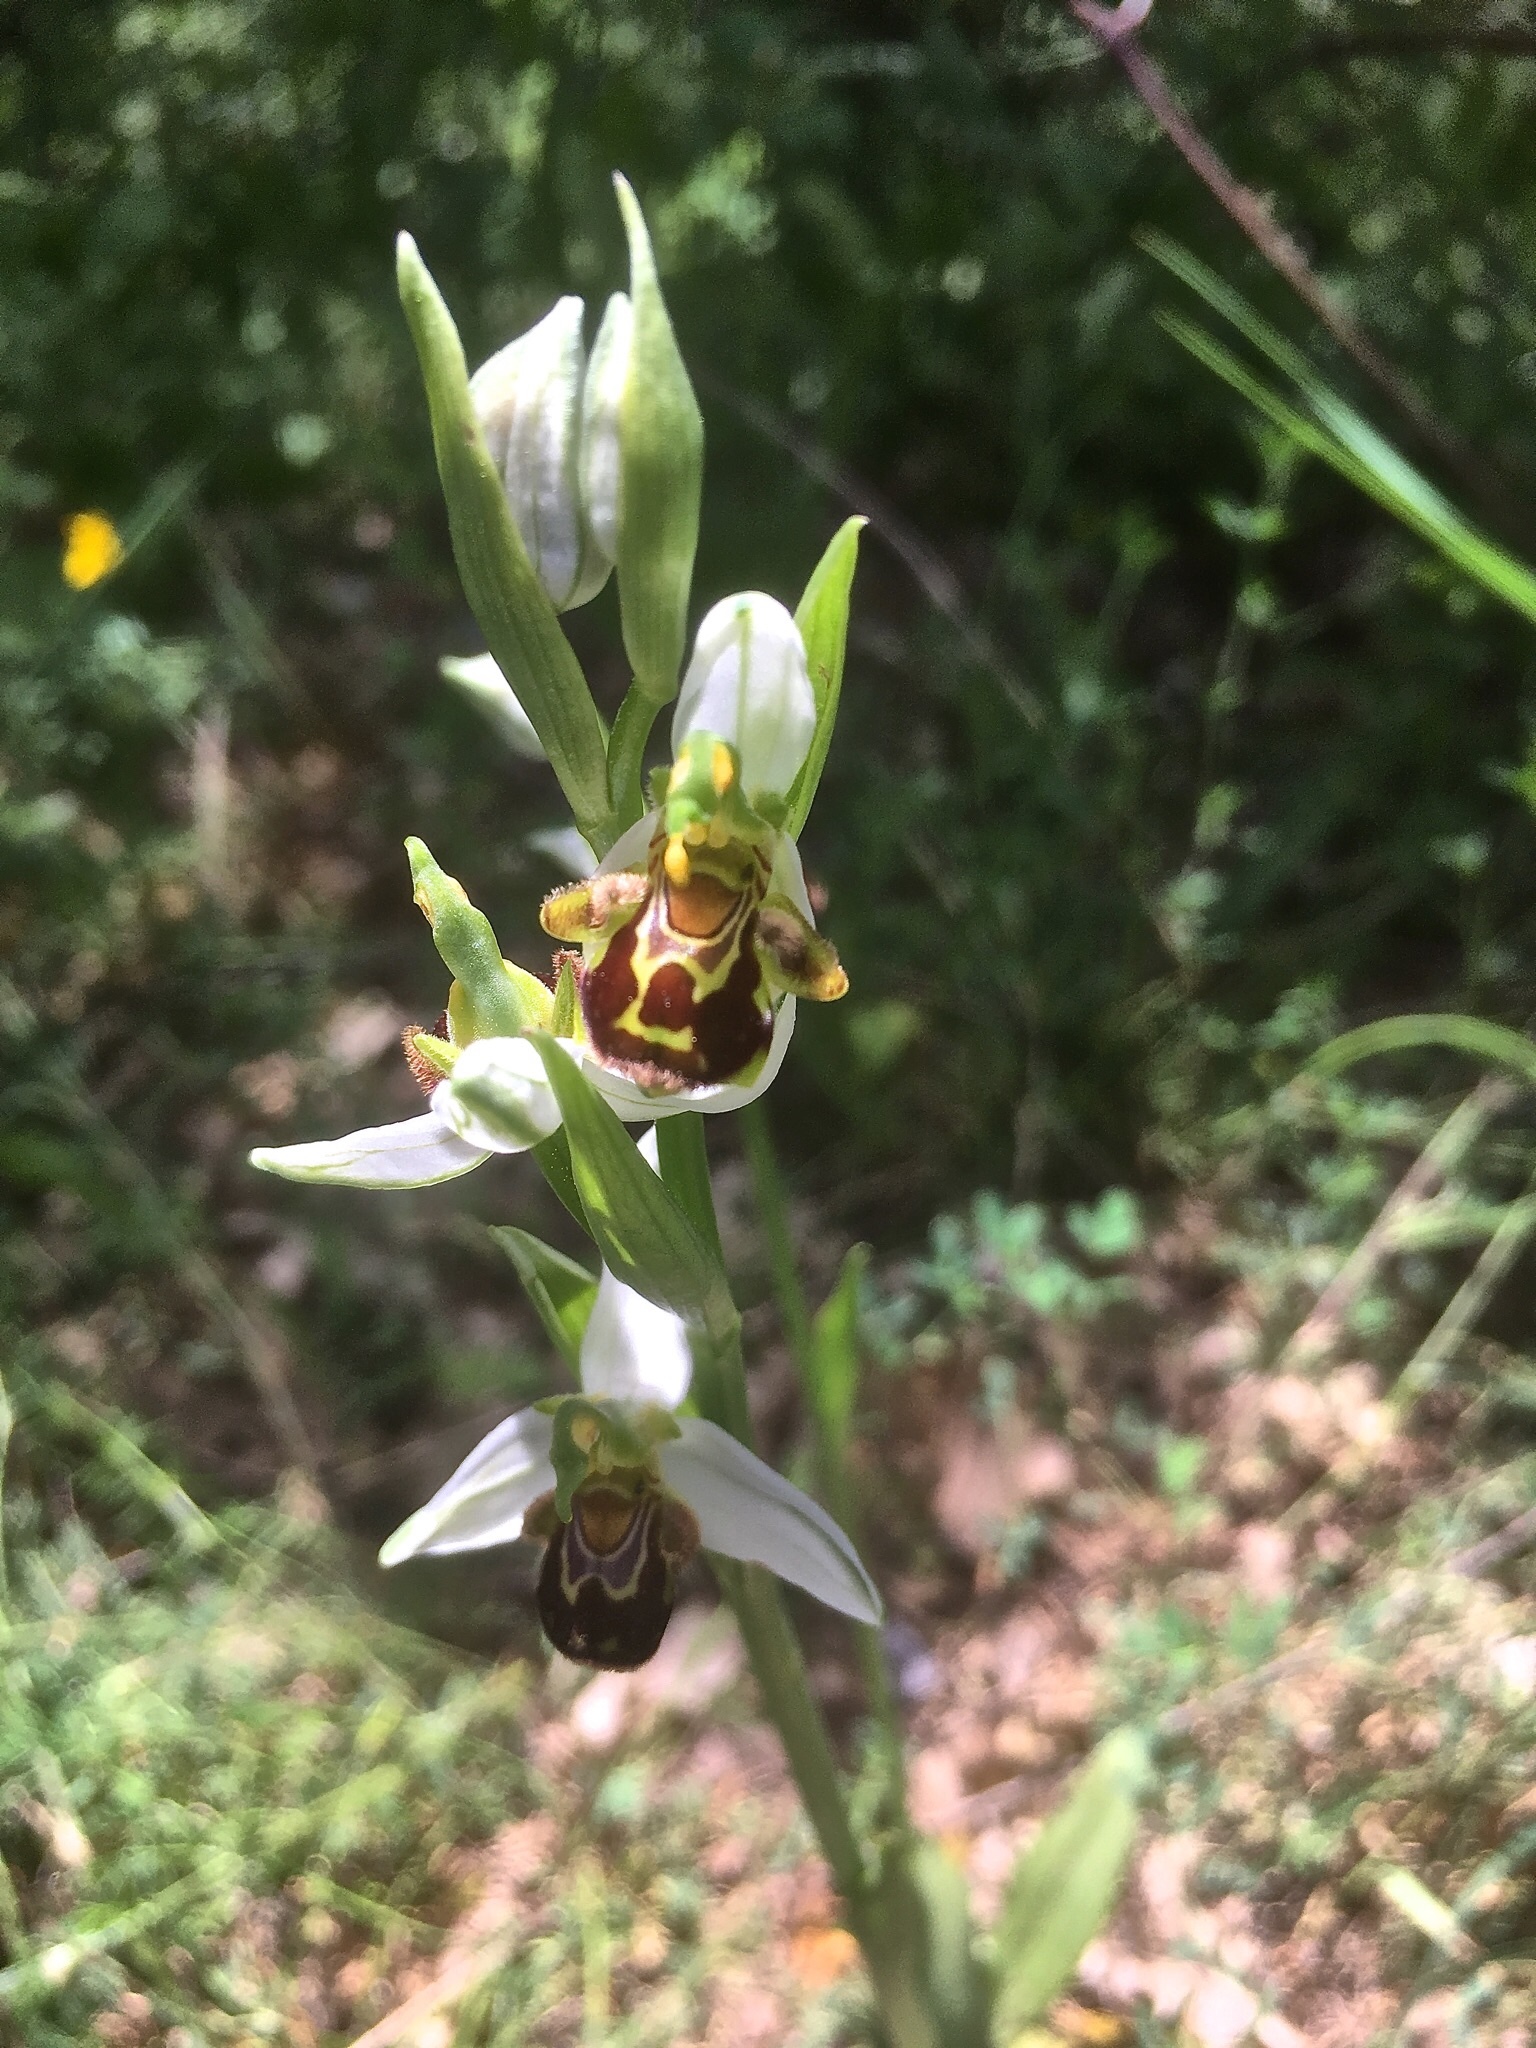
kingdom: Plantae
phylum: Tracheophyta
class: Liliopsida
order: Asparagales
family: Orchidaceae
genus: Ophrys
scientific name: Ophrys apifera
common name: Bee orchid
